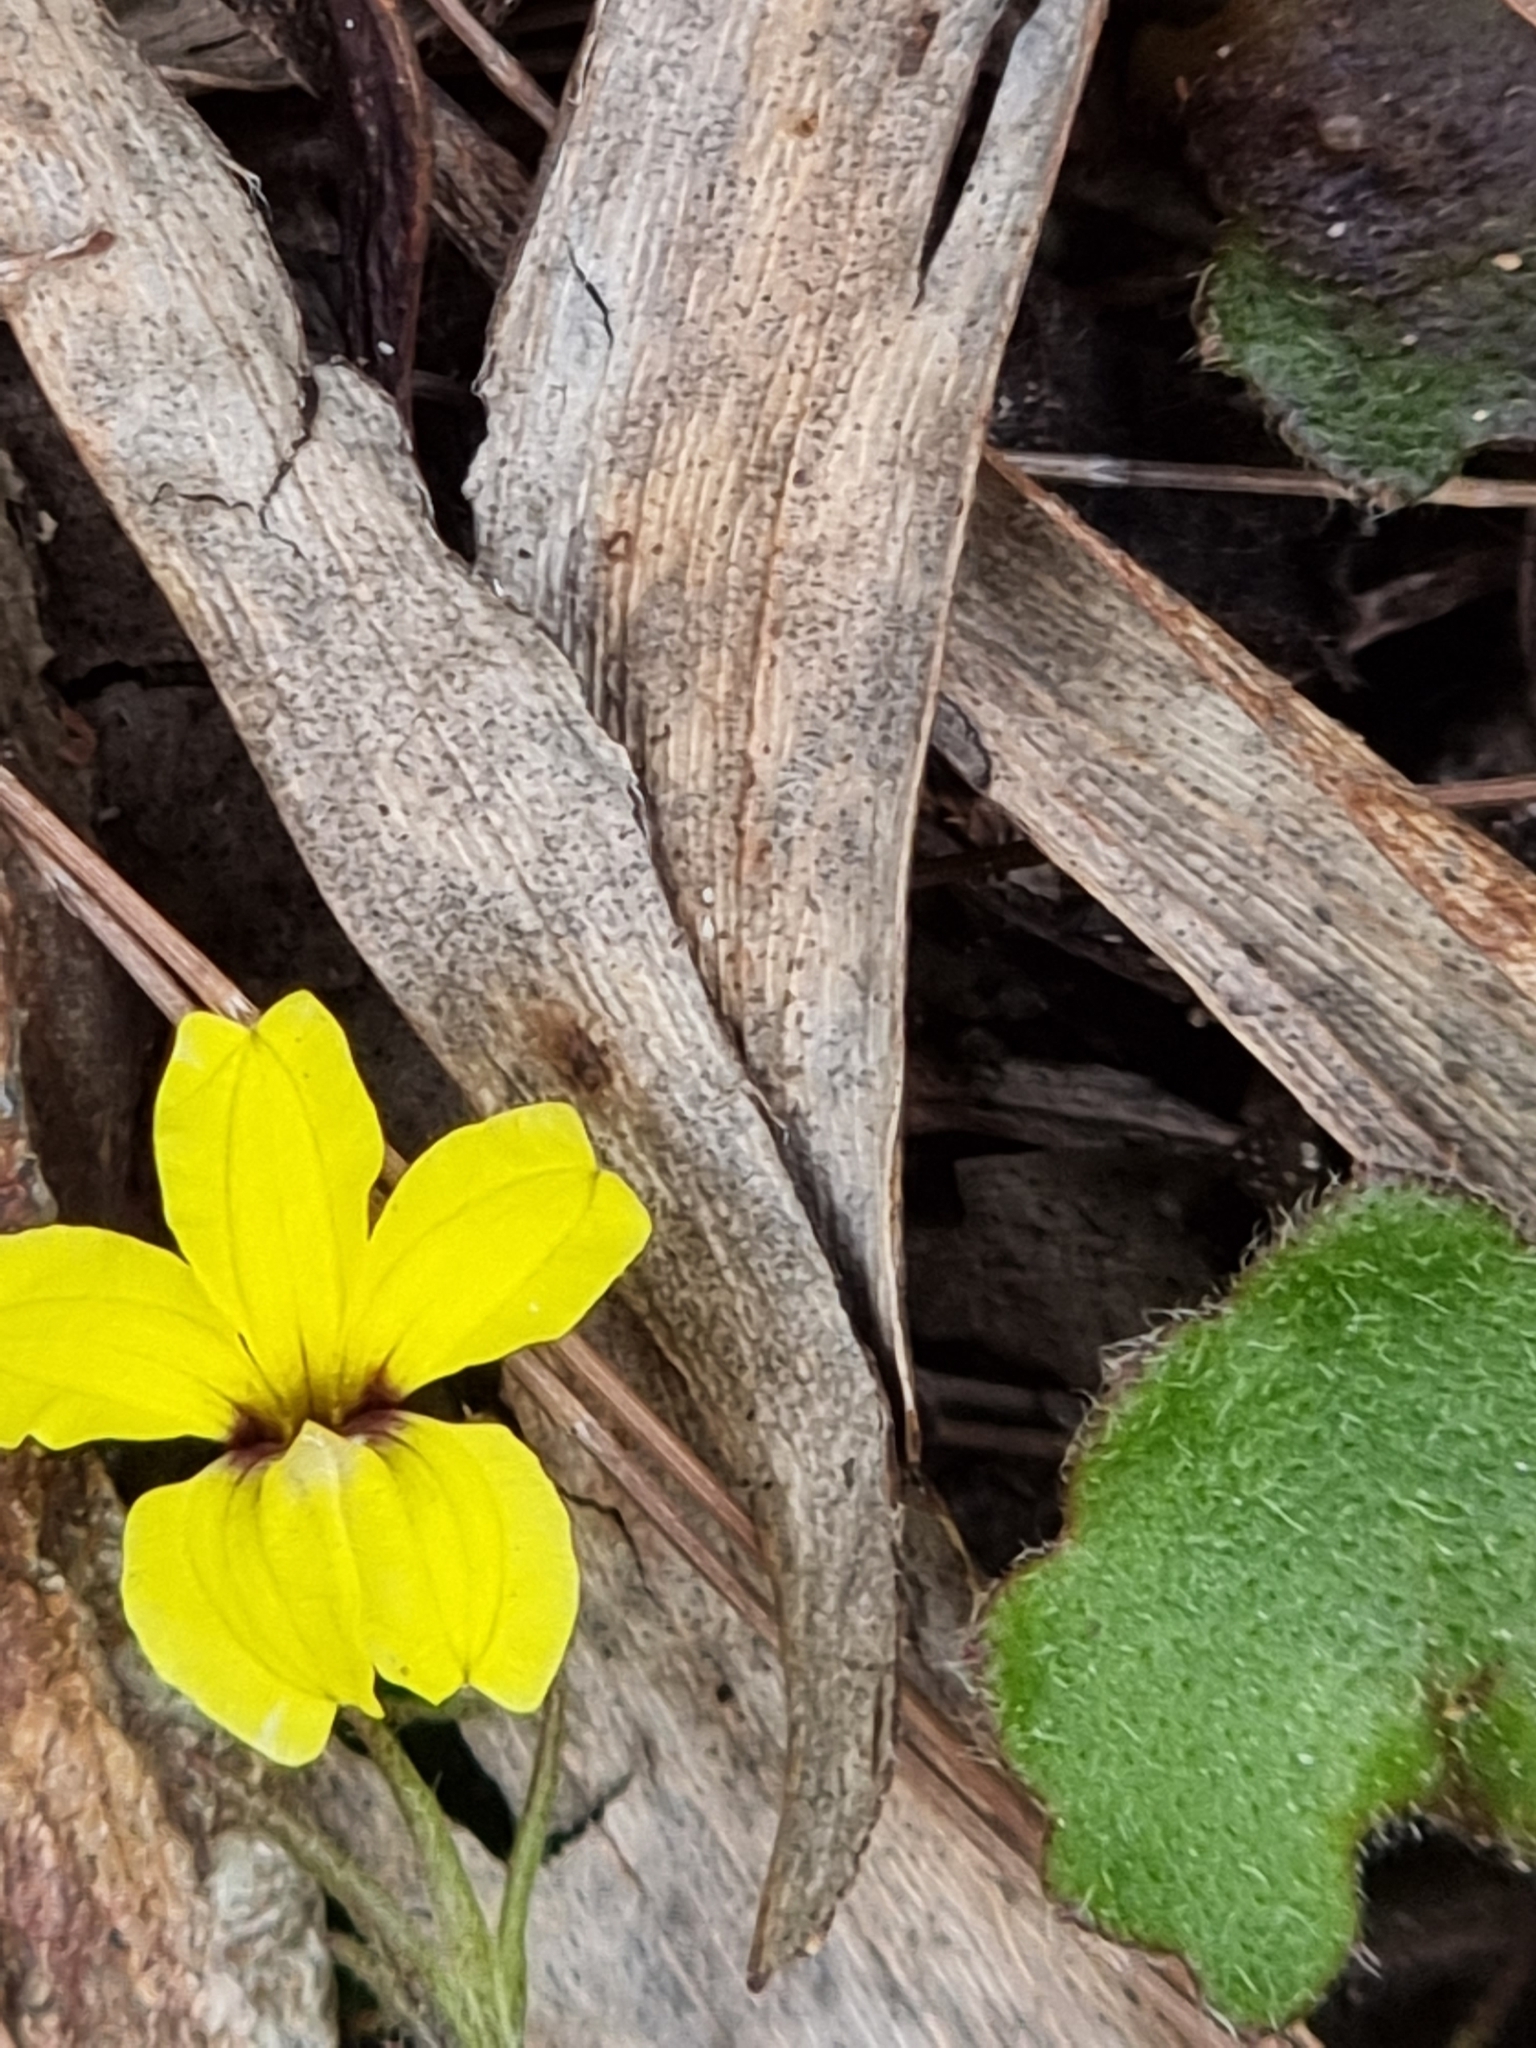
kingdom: Plantae
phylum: Tracheophyta
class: Magnoliopsida
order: Asterales
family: Goodeniaceae
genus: Goodenia
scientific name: Goodenia rotundifolia
